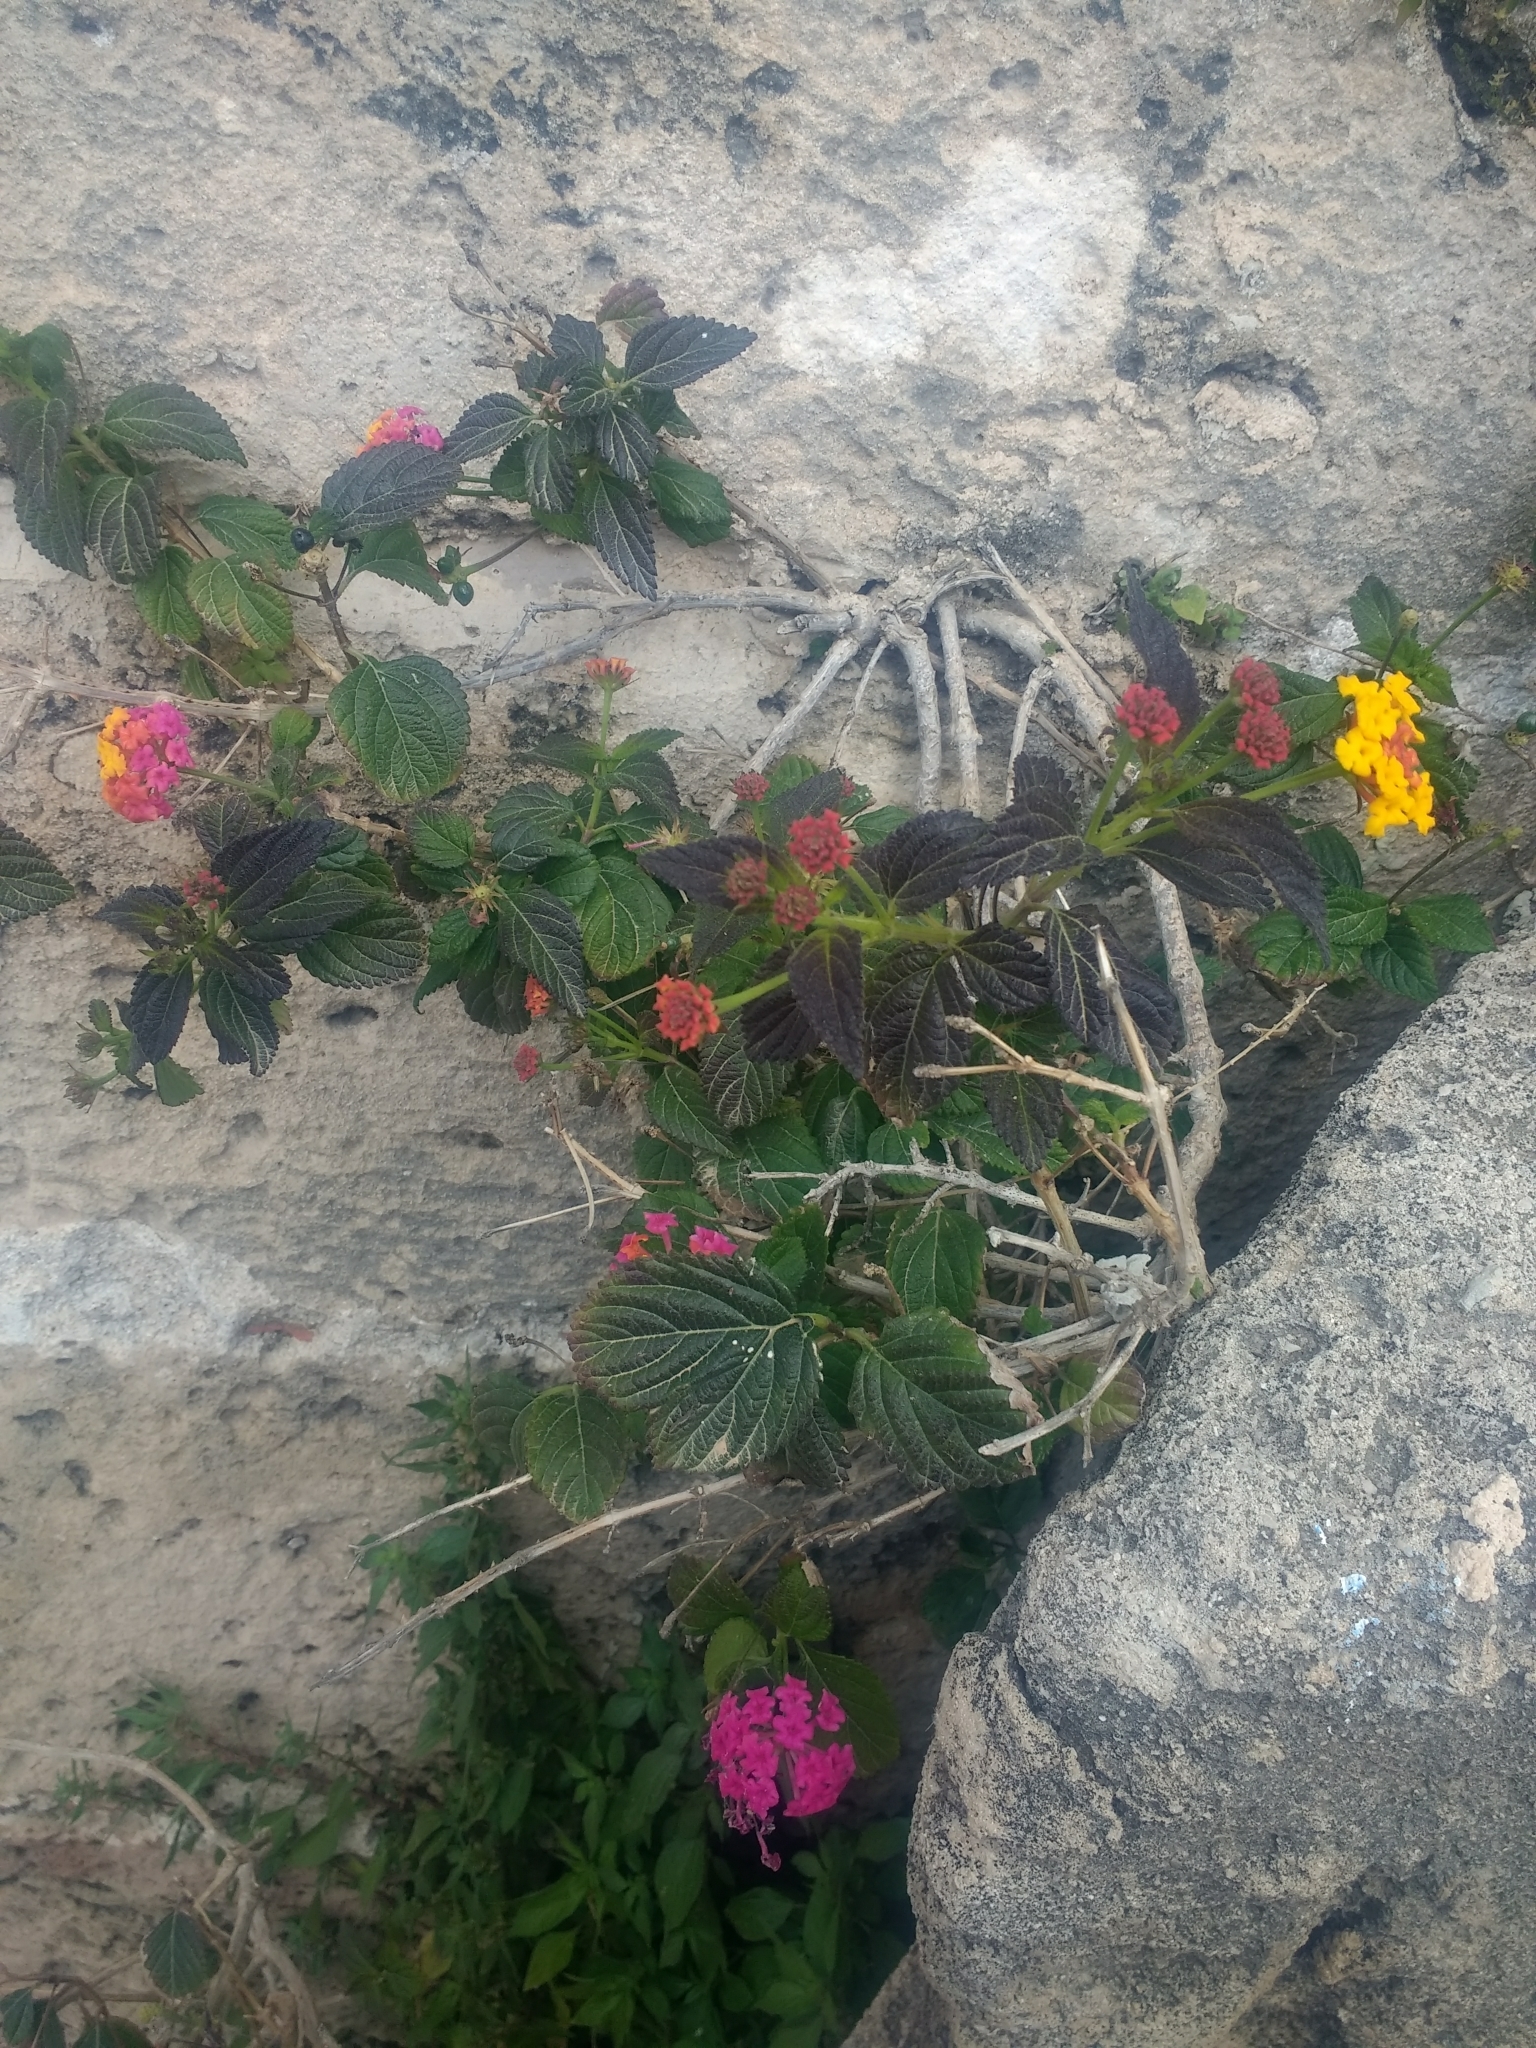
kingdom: Plantae
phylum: Tracheophyta
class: Magnoliopsida
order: Lamiales
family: Verbenaceae
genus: Lantana
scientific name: Lantana camara
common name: Lantana
